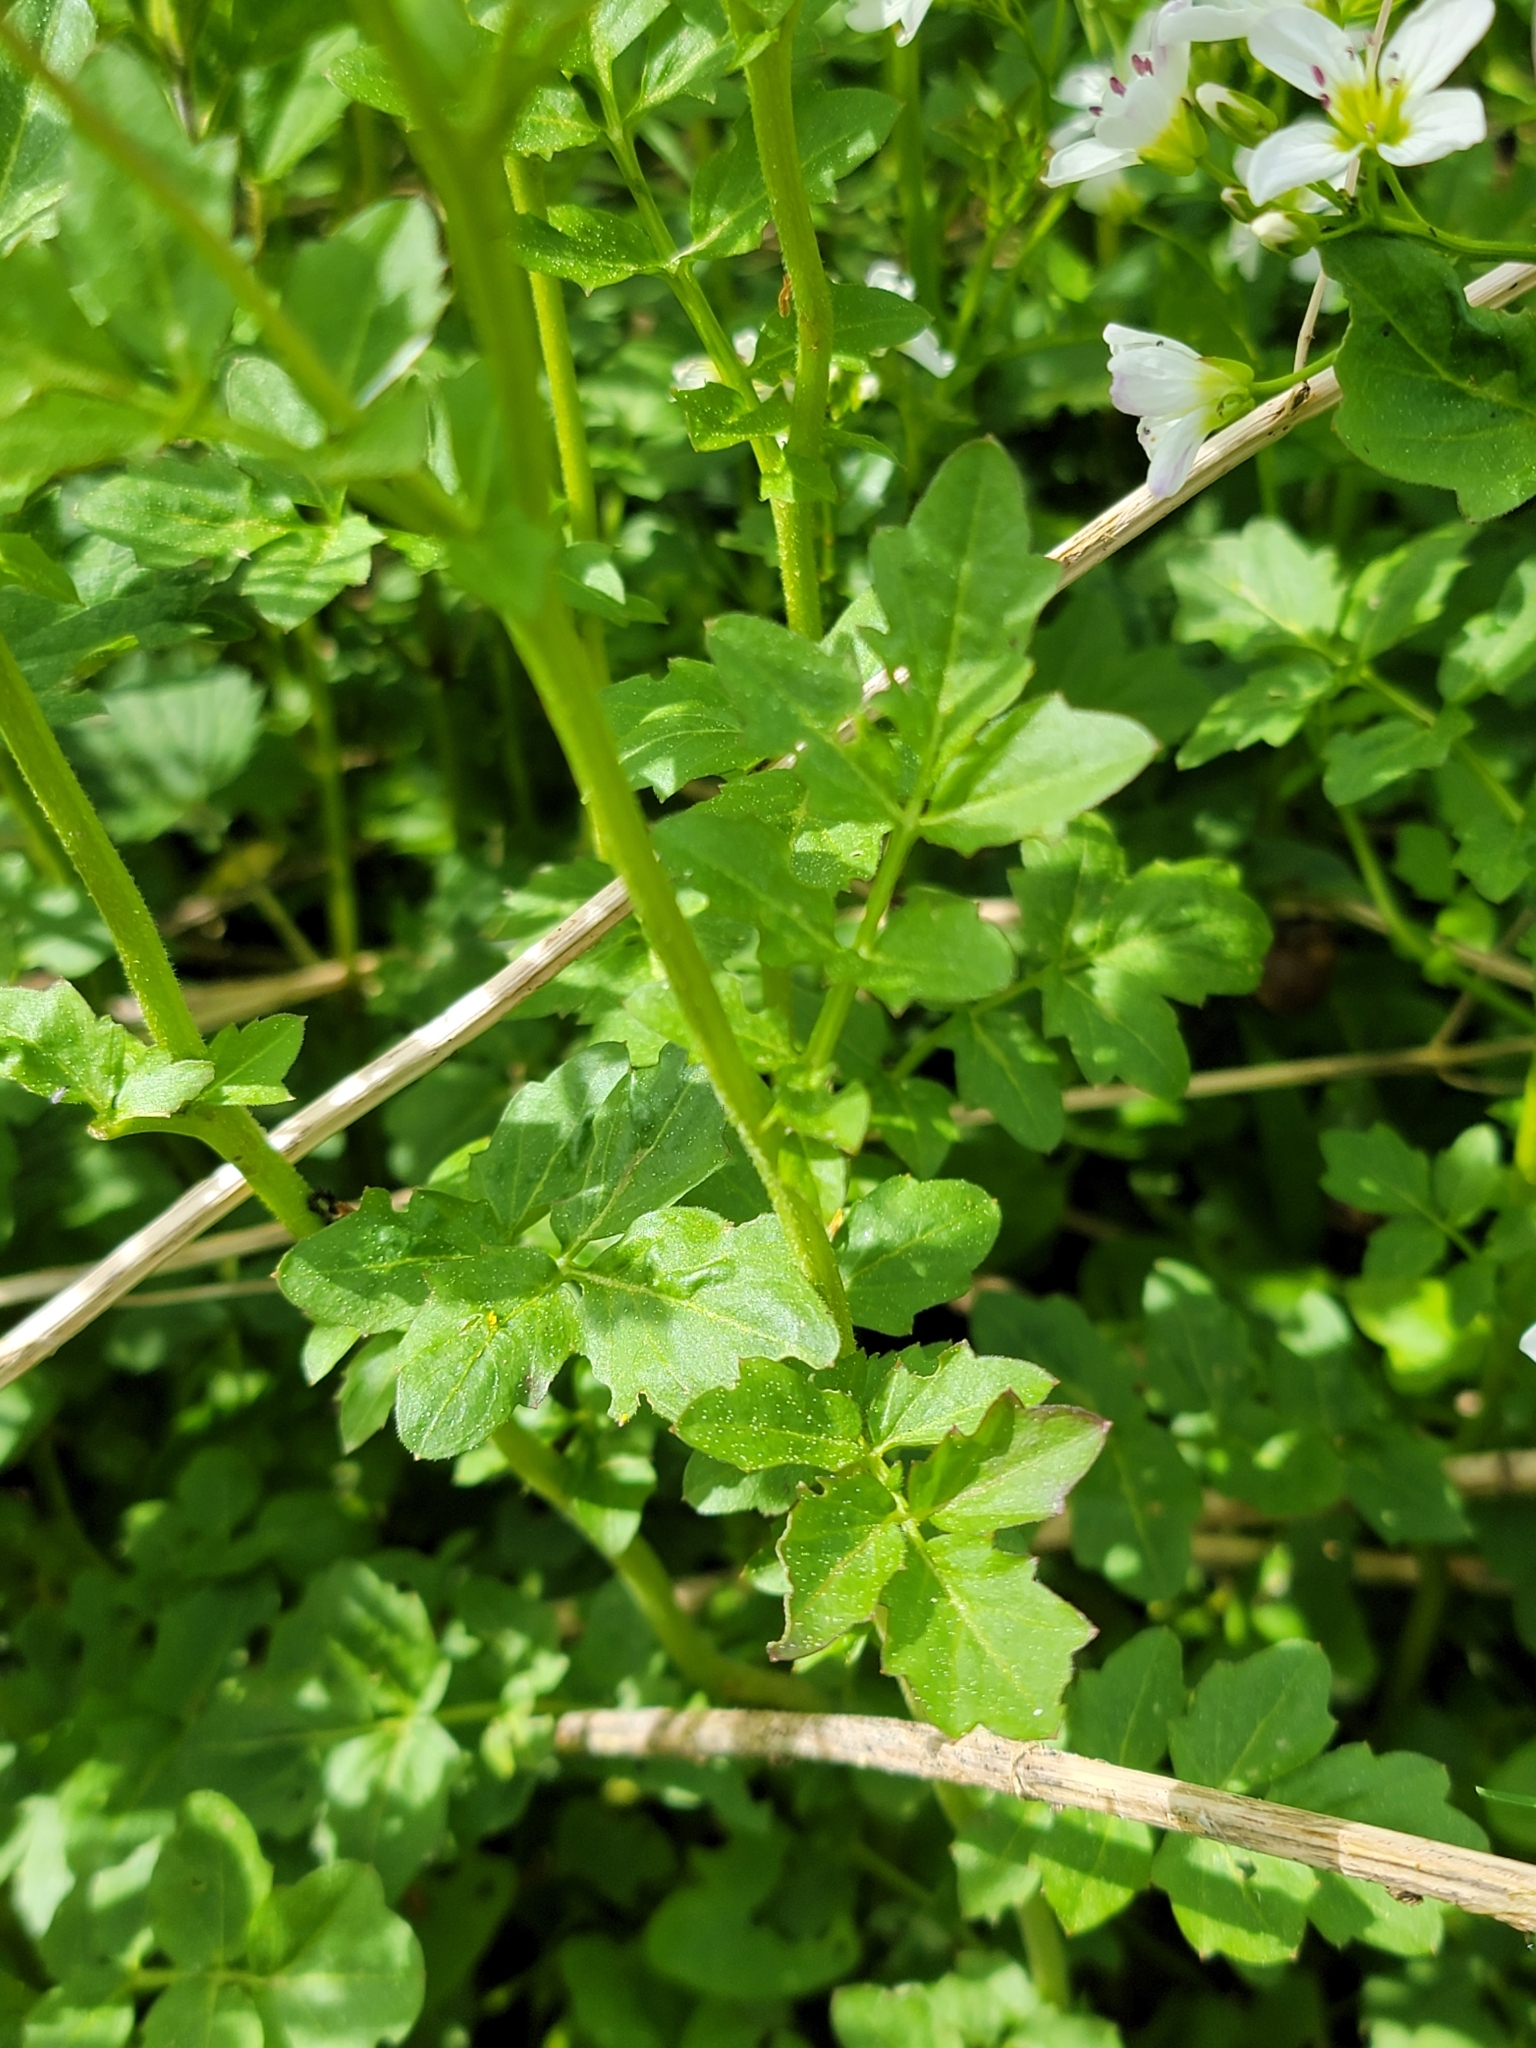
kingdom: Plantae
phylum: Tracheophyta
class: Magnoliopsida
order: Brassicales
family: Brassicaceae
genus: Cardamine
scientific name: Cardamine pratensis
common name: Cuckoo flower
